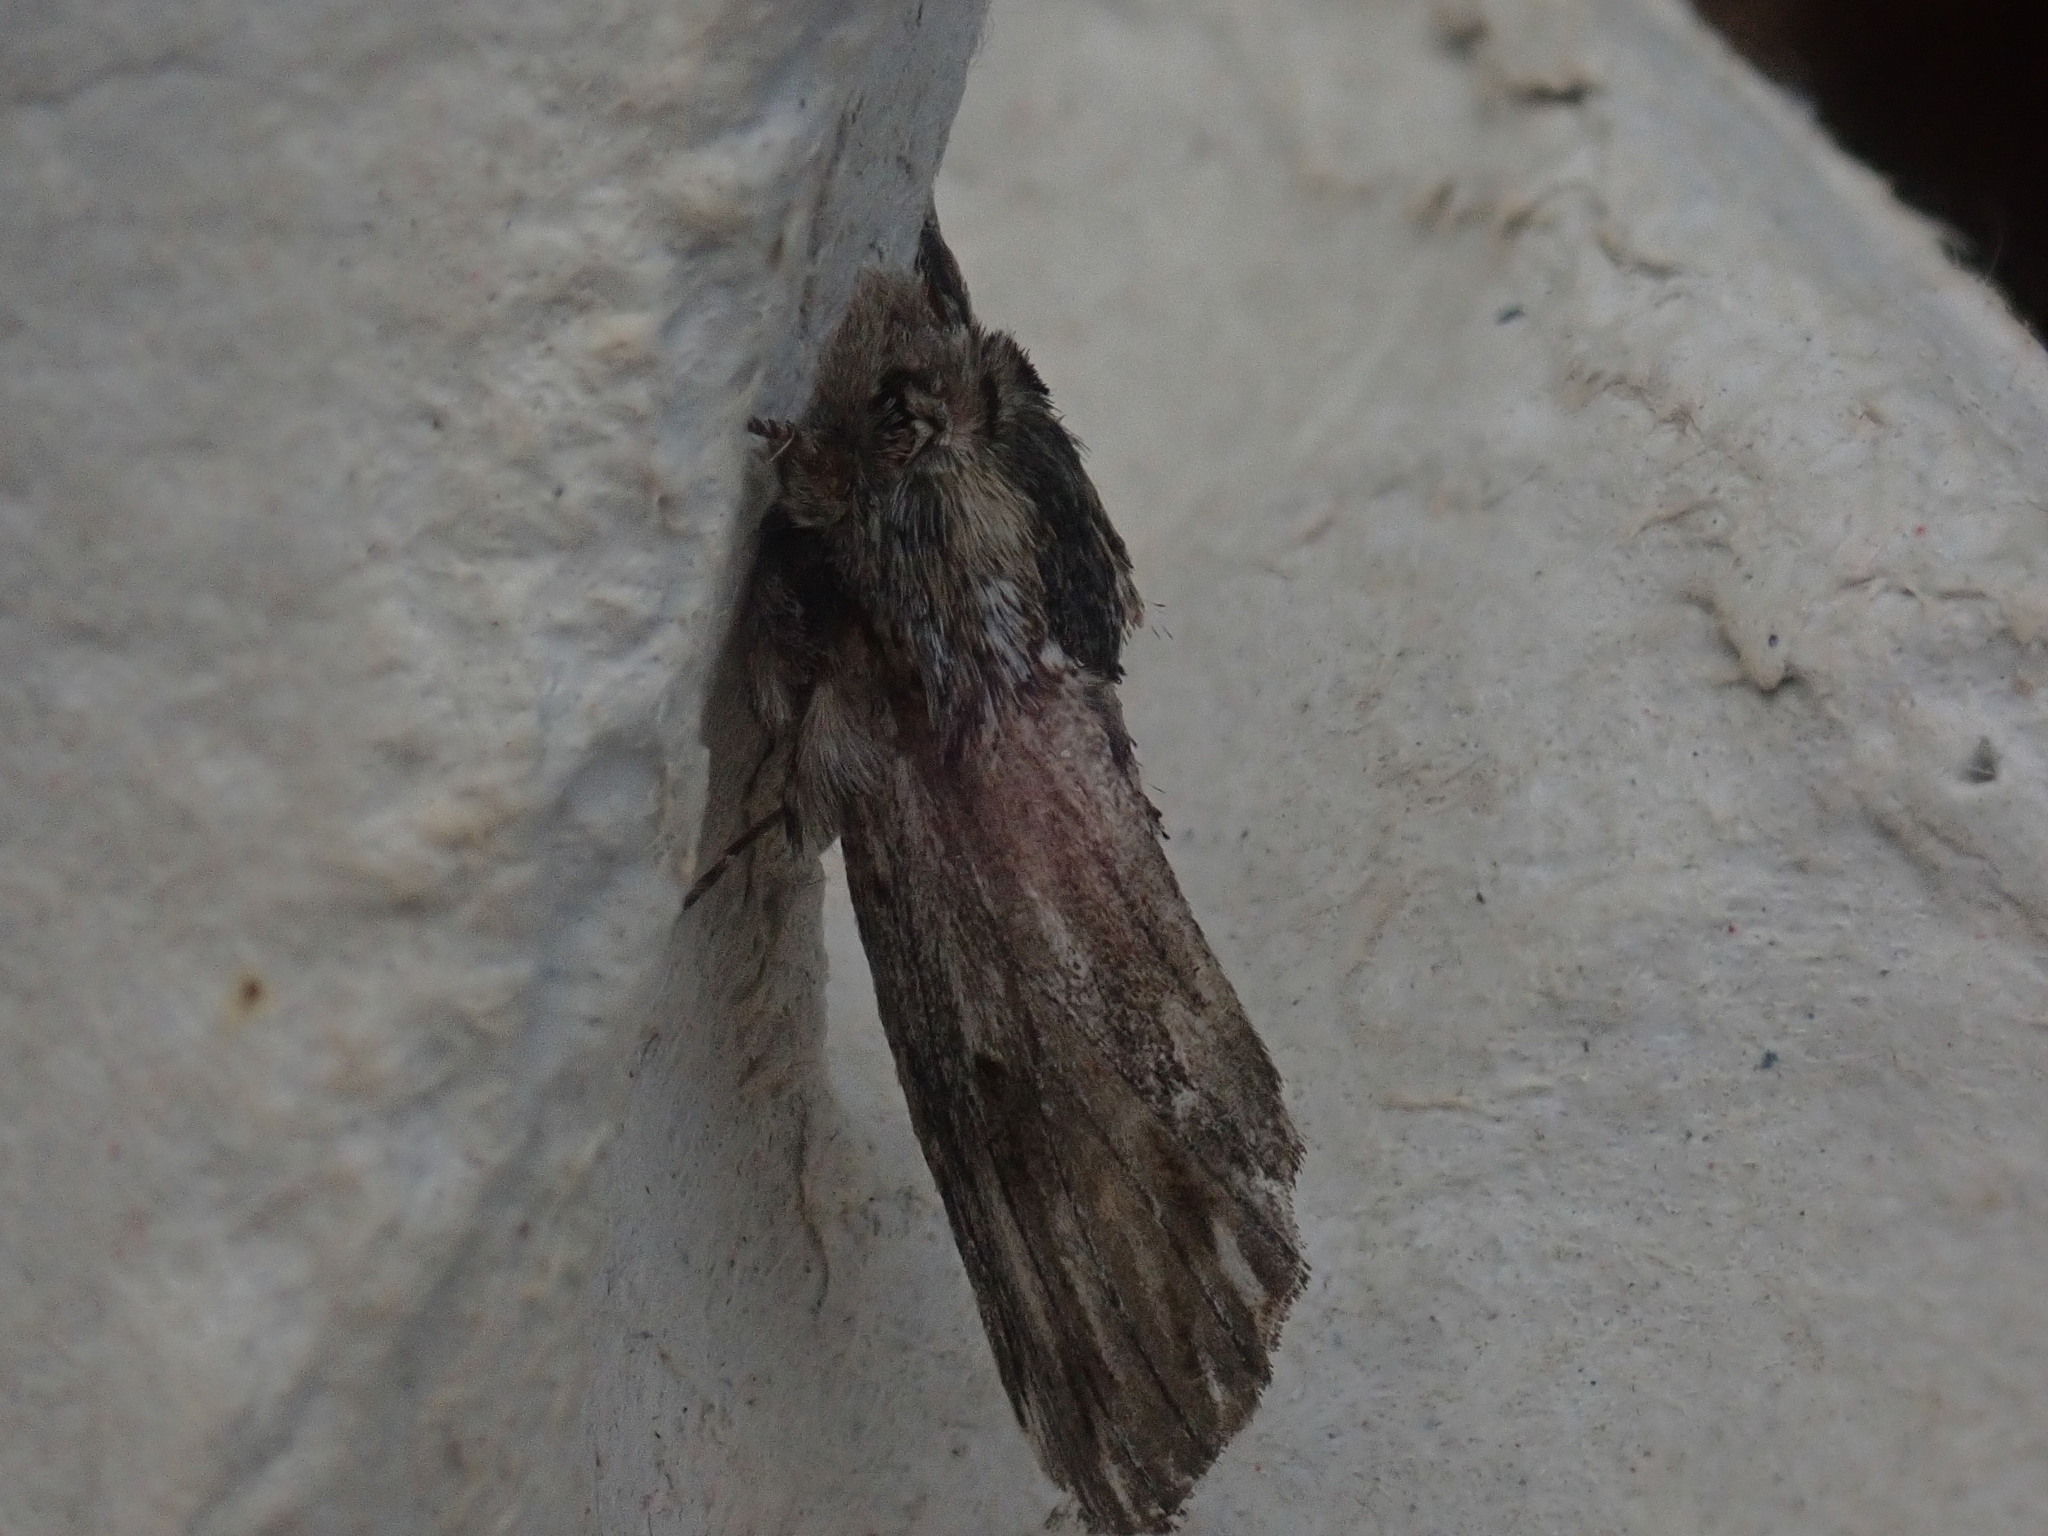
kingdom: Animalia
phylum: Arthropoda
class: Insecta
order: Lepidoptera
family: Notodontidae
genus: Oligocentria
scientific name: Oligocentria Ianassa lignicolor
